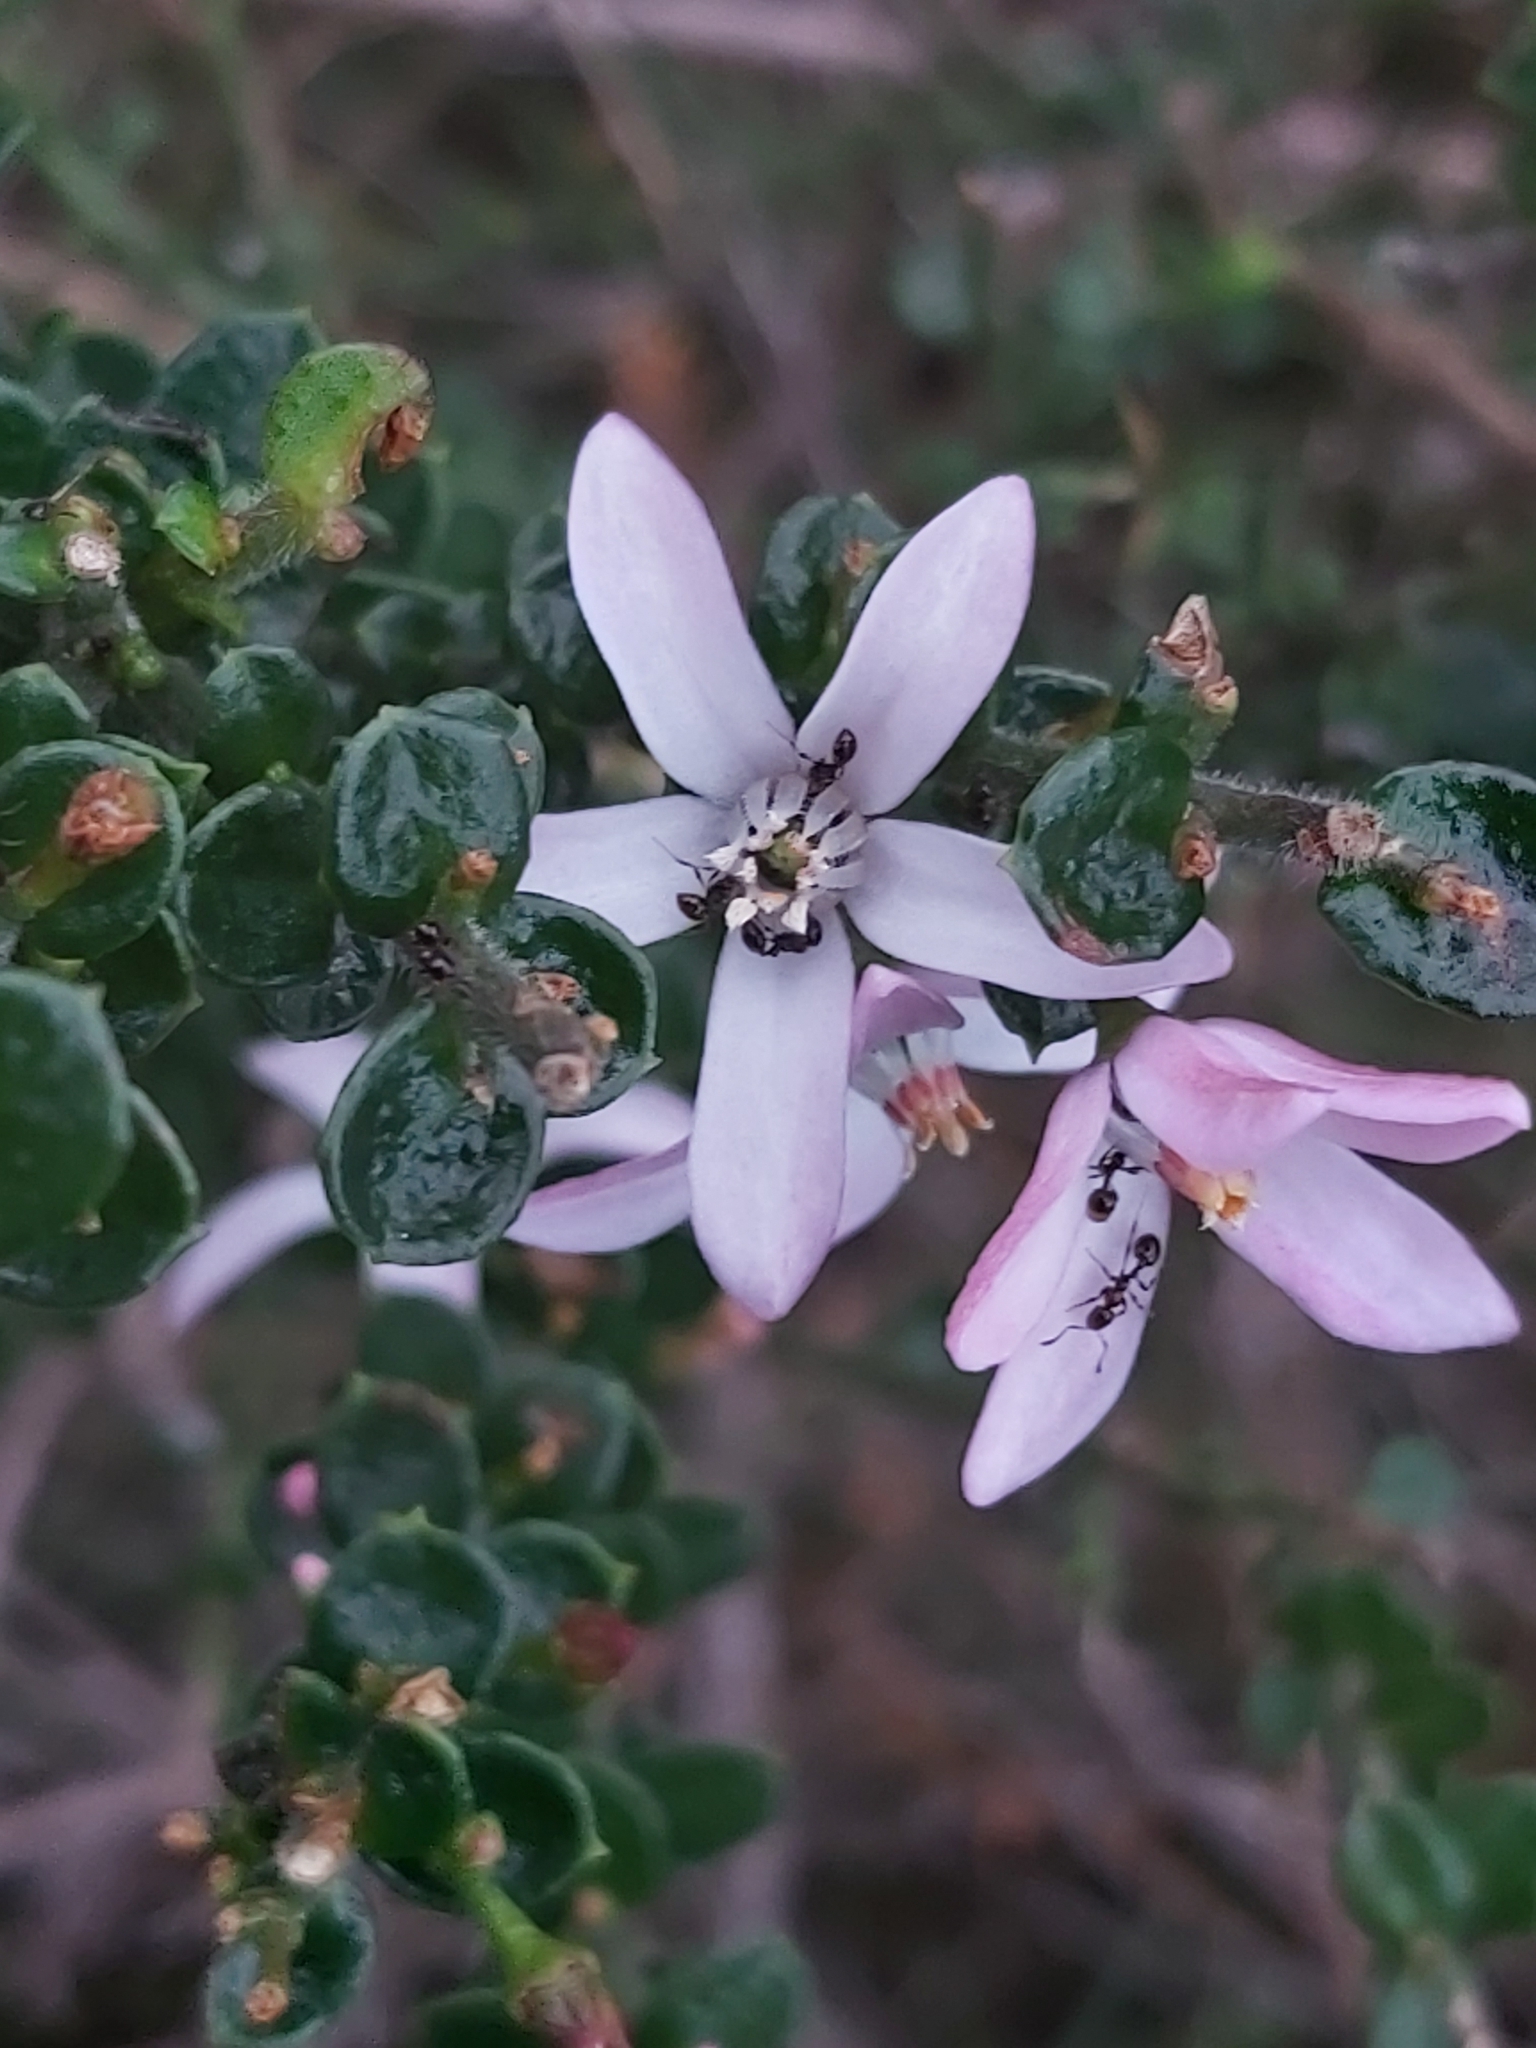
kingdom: Plantae
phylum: Tracheophyta
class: Magnoliopsida
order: Sapindales
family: Rutaceae
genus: Philotheca
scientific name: Philotheca buxifolia
